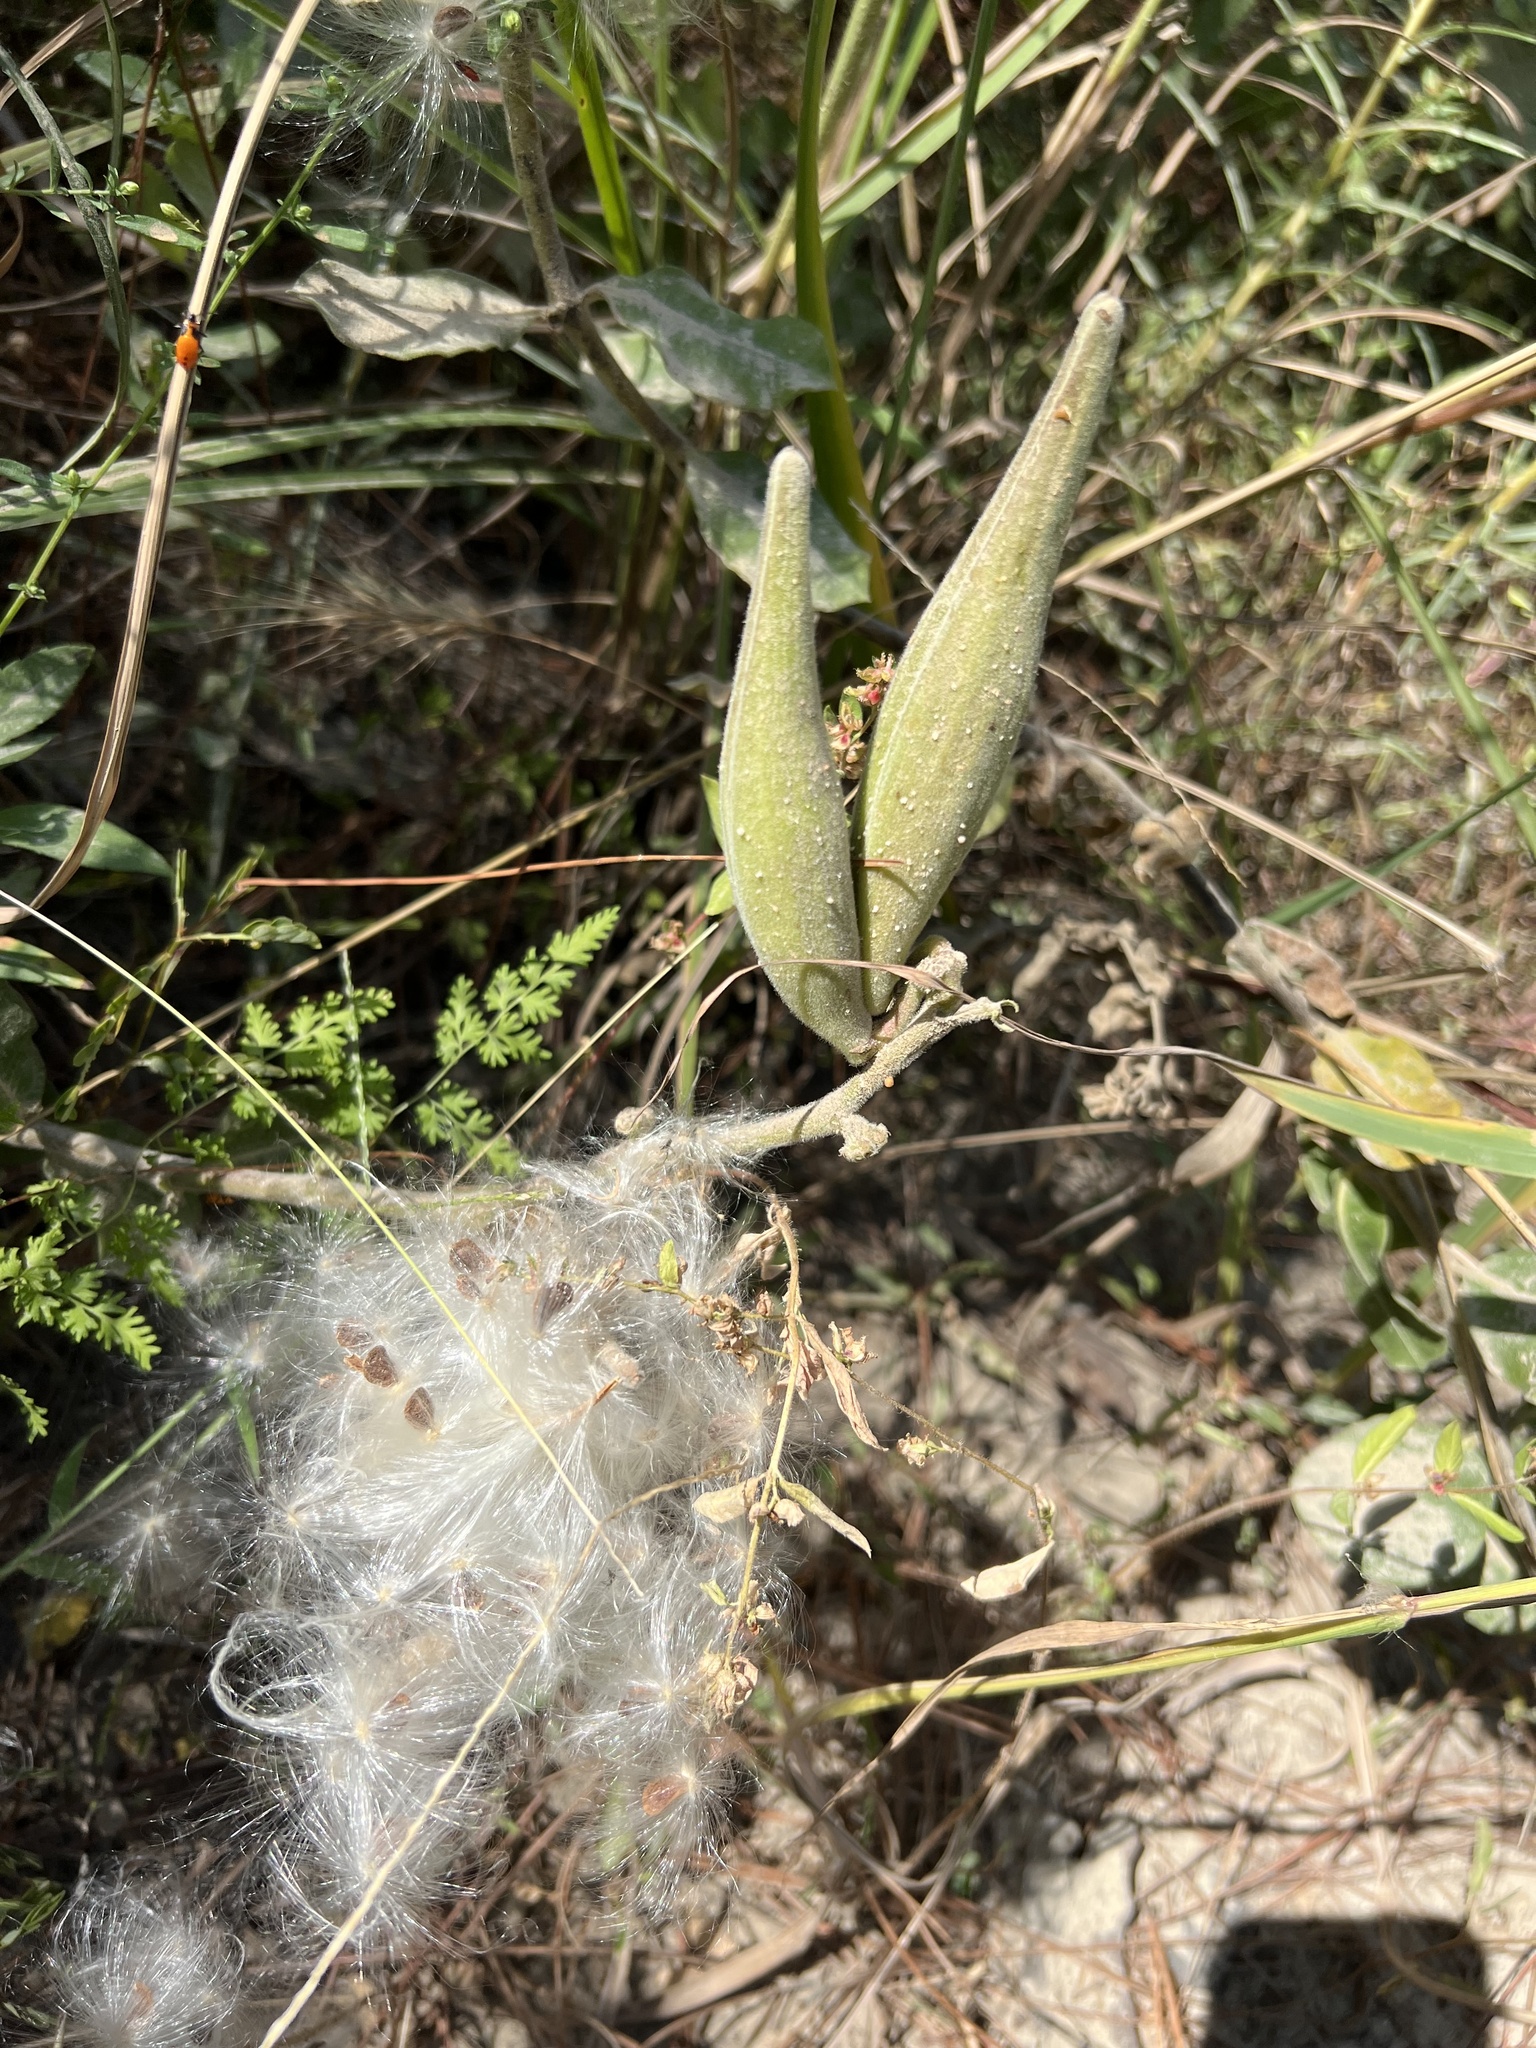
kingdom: Plantae
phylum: Tracheophyta
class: Magnoliopsida
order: Gentianales
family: Apocynaceae
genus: Asclepias
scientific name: Asclepias obovata
